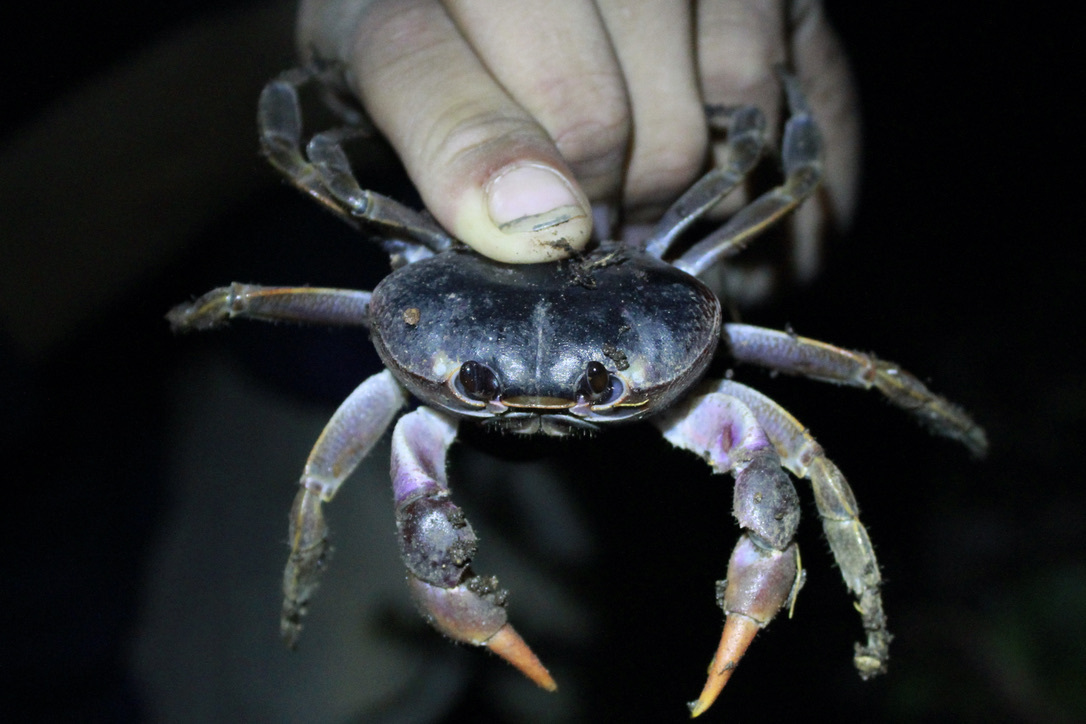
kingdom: Animalia
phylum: Arthropoda
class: Malacostraca
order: Decapoda
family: Gecarcinidae
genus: Gecarcinus
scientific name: Gecarcinus lateralis
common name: Bermuda land crab
